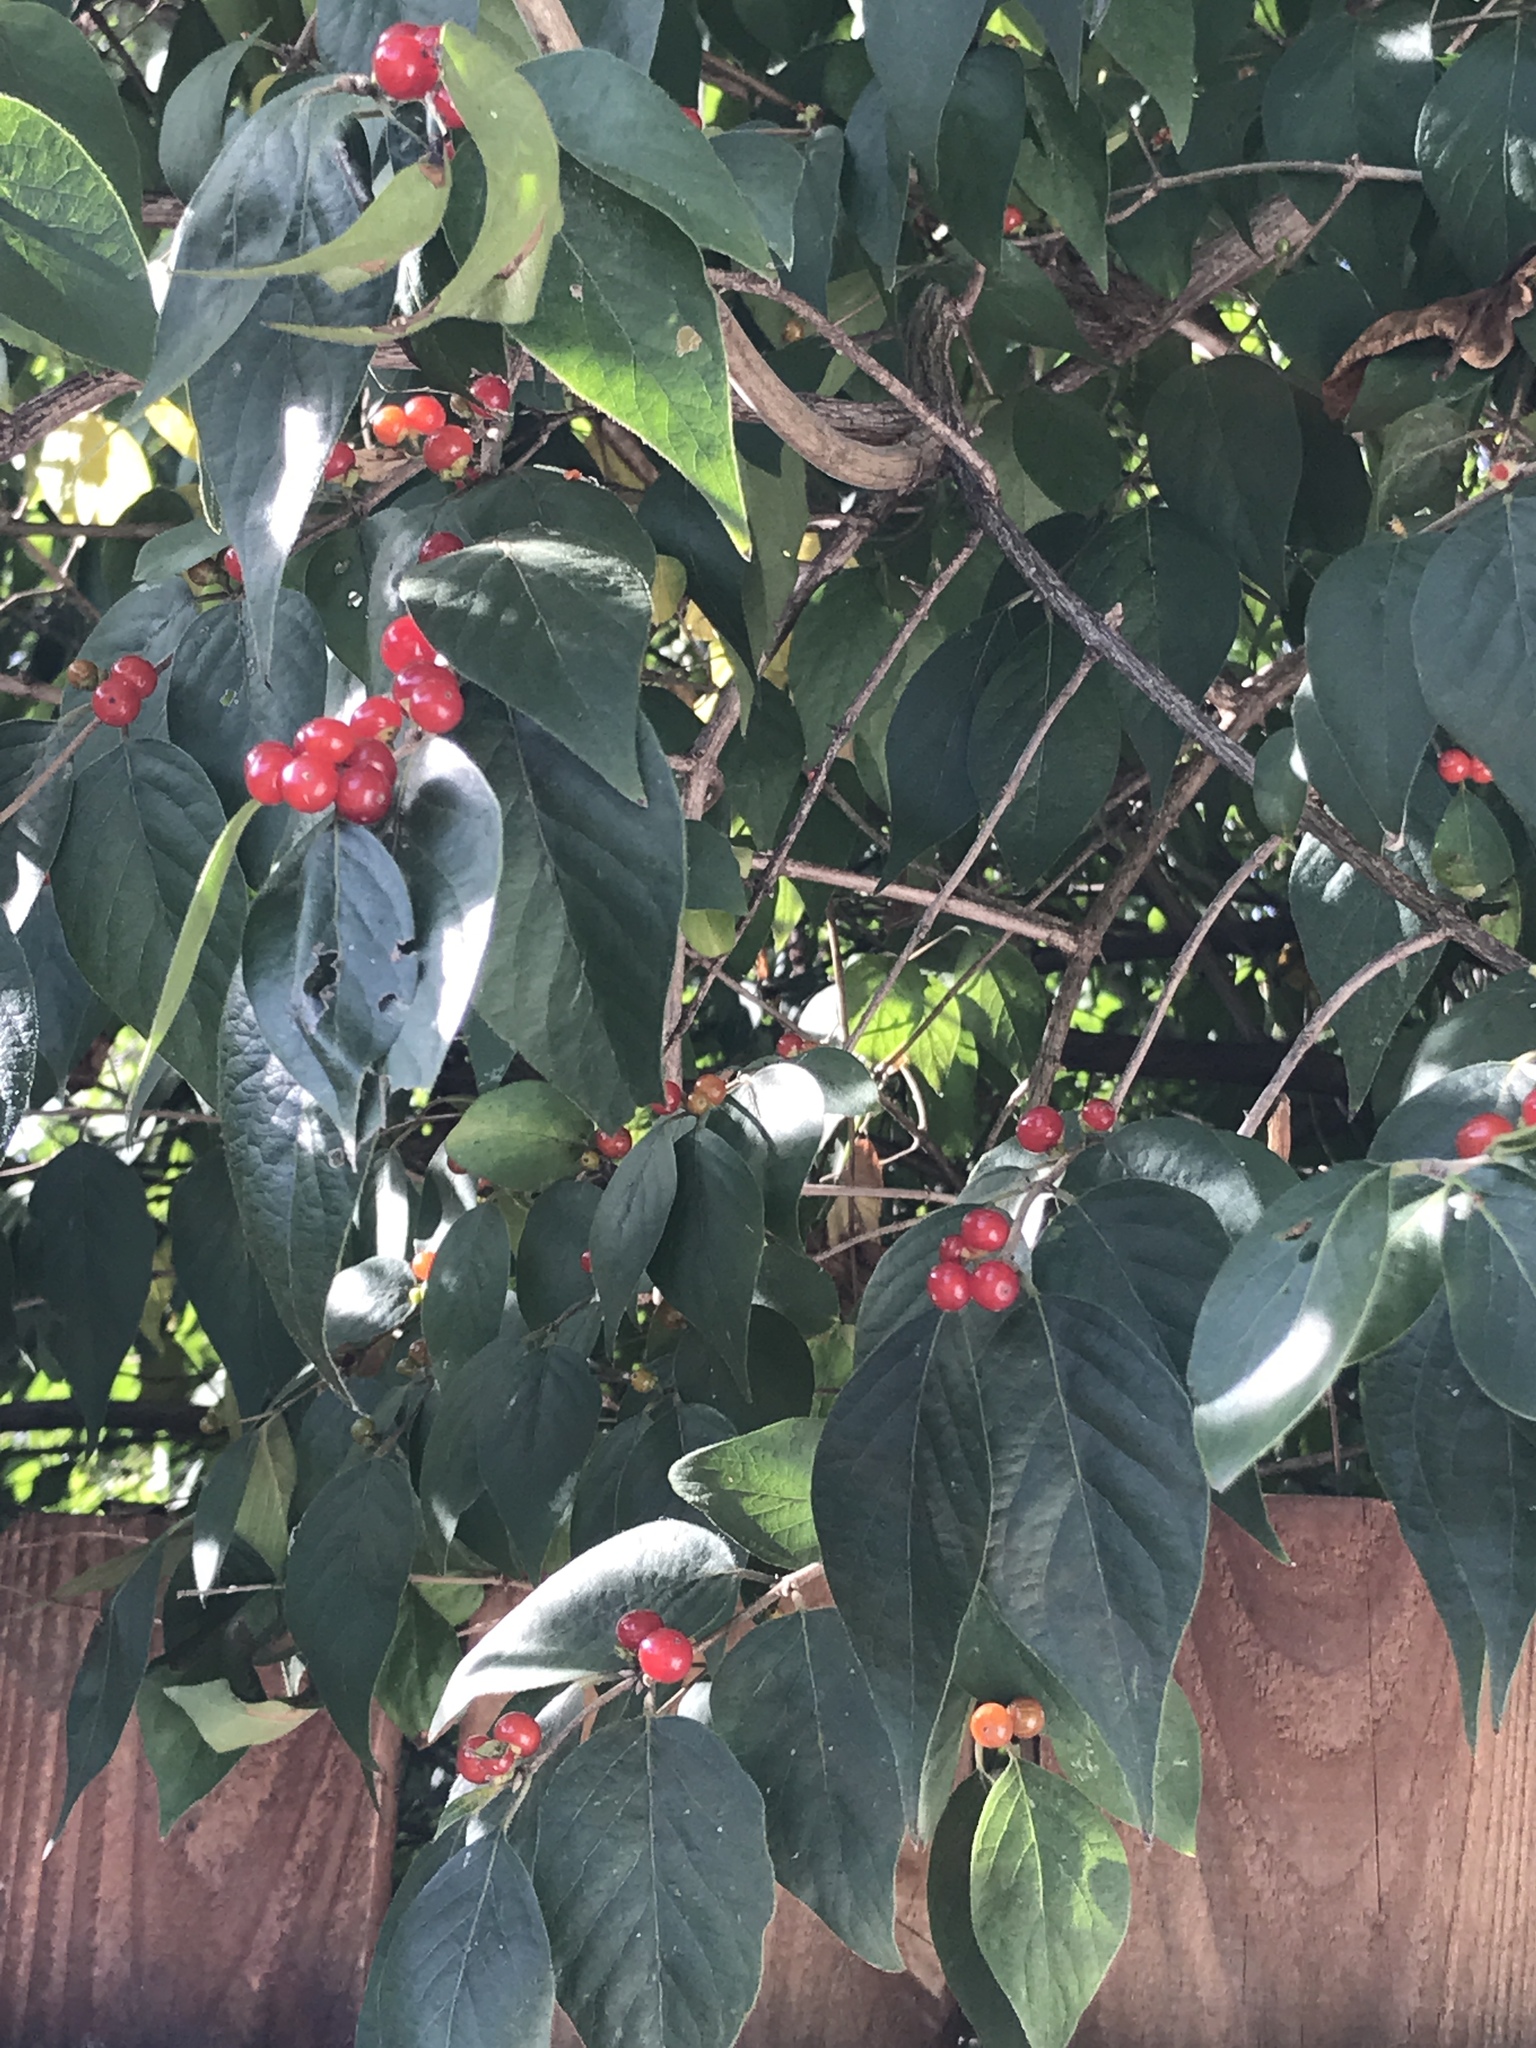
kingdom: Plantae
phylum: Tracheophyta
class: Magnoliopsida
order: Dipsacales
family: Caprifoliaceae
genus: Lonicera
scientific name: Lonicera maackii
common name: Amur honeysuckle
